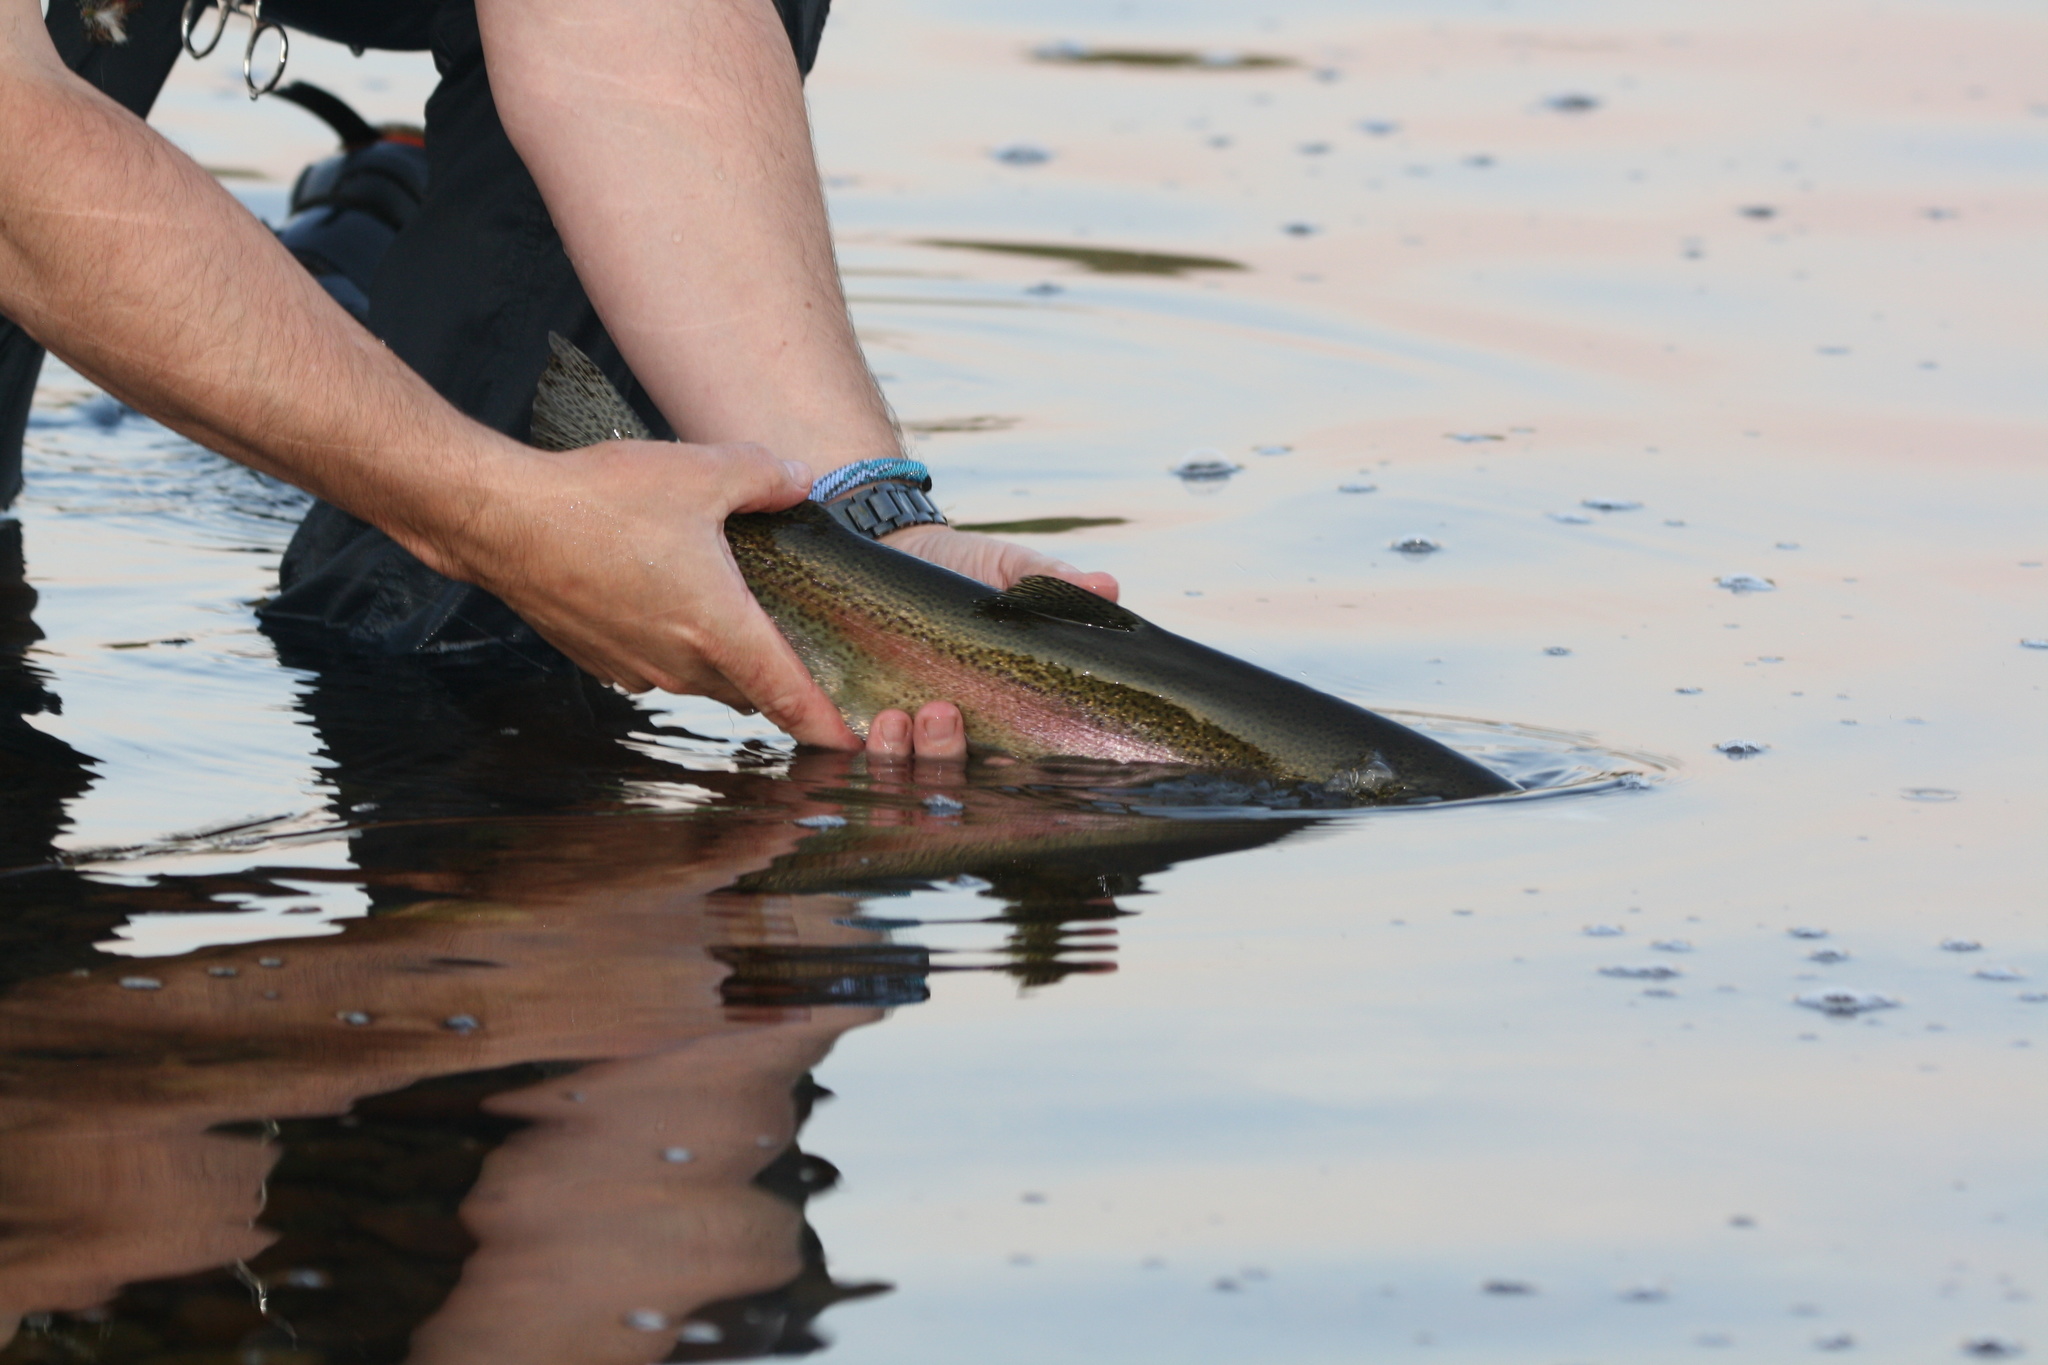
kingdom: Animalia
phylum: Chordata
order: Salmoniformes
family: Salmonidae
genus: Oncorhynchus
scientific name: Oncorhynchus mykiss
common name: Rainbow trout
